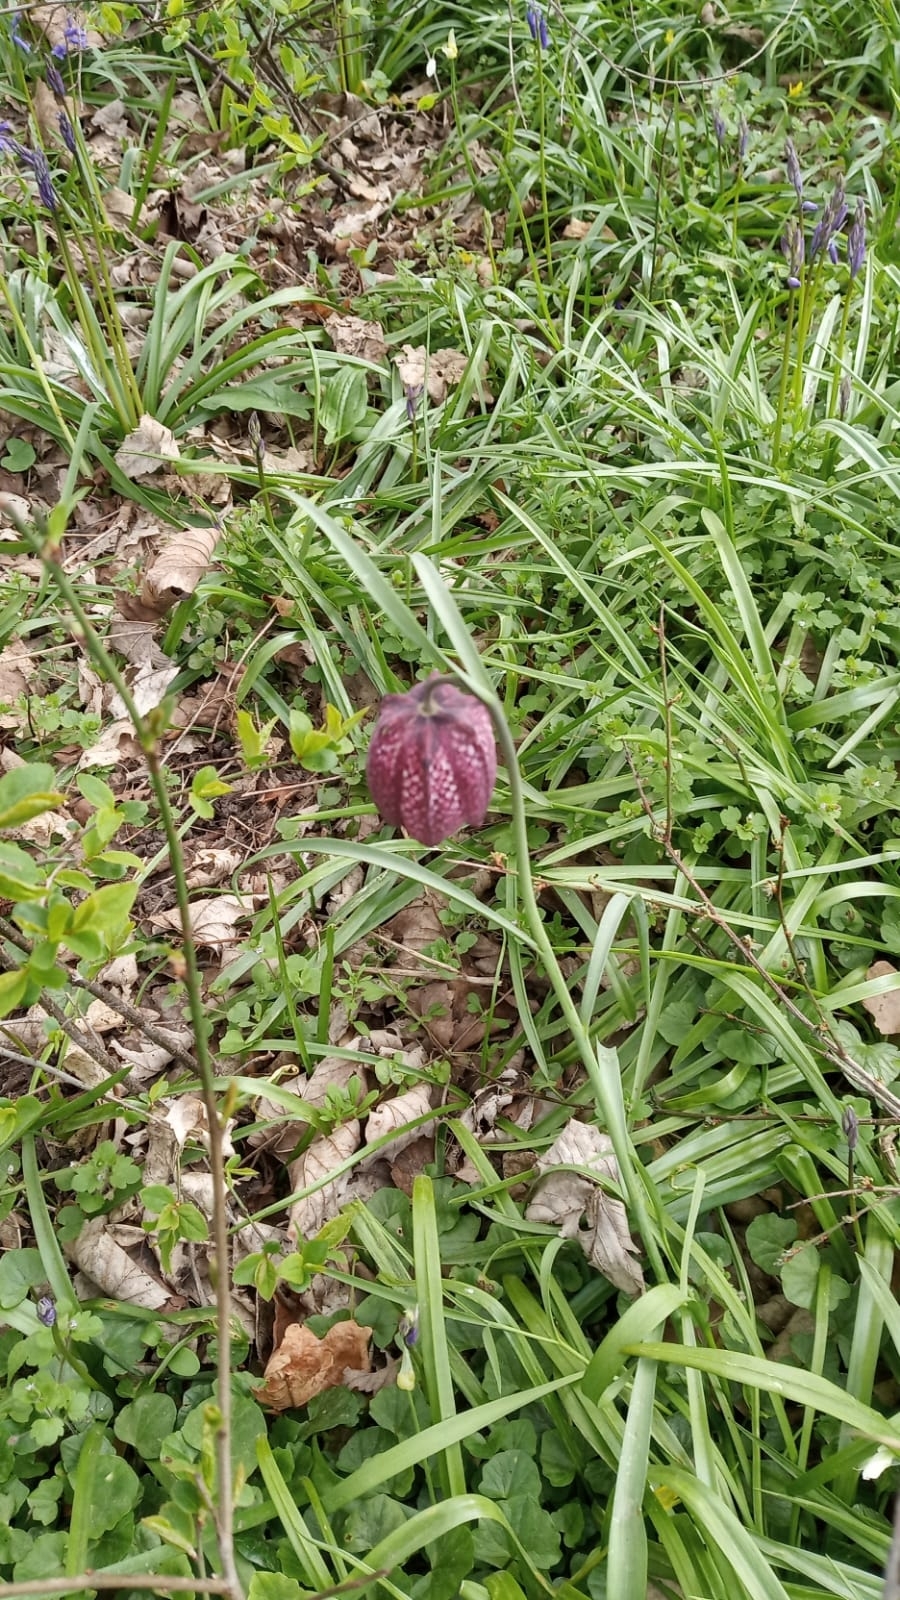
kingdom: Plantae
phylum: Tracheophyta
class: Liliopsida
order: Liliales
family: Liliaceae
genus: Fritillaria
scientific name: Fritillaria meleagris
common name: Fritillary
